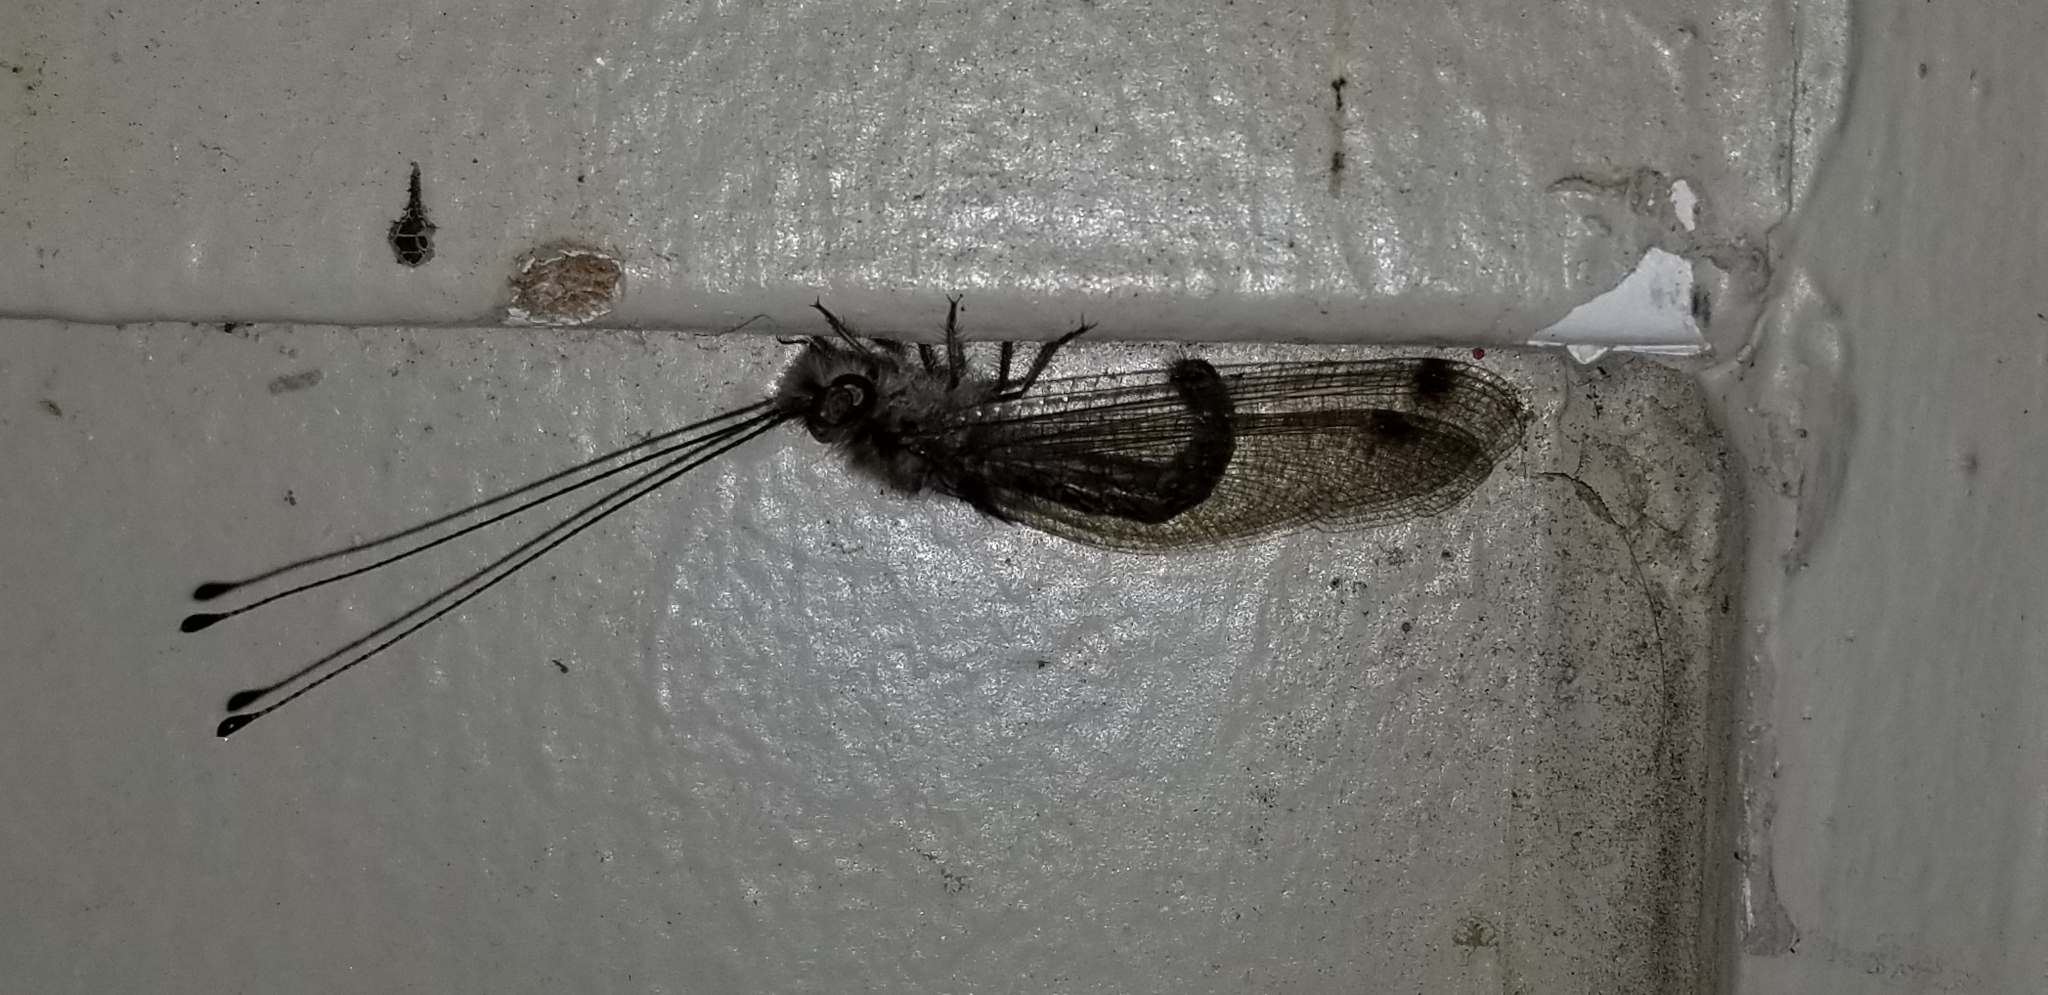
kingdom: Animalia
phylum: Arthropoda
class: Insecta
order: Neuroptera
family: Ascalaphidae
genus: Ululodes
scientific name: Ululodes macleayanus
